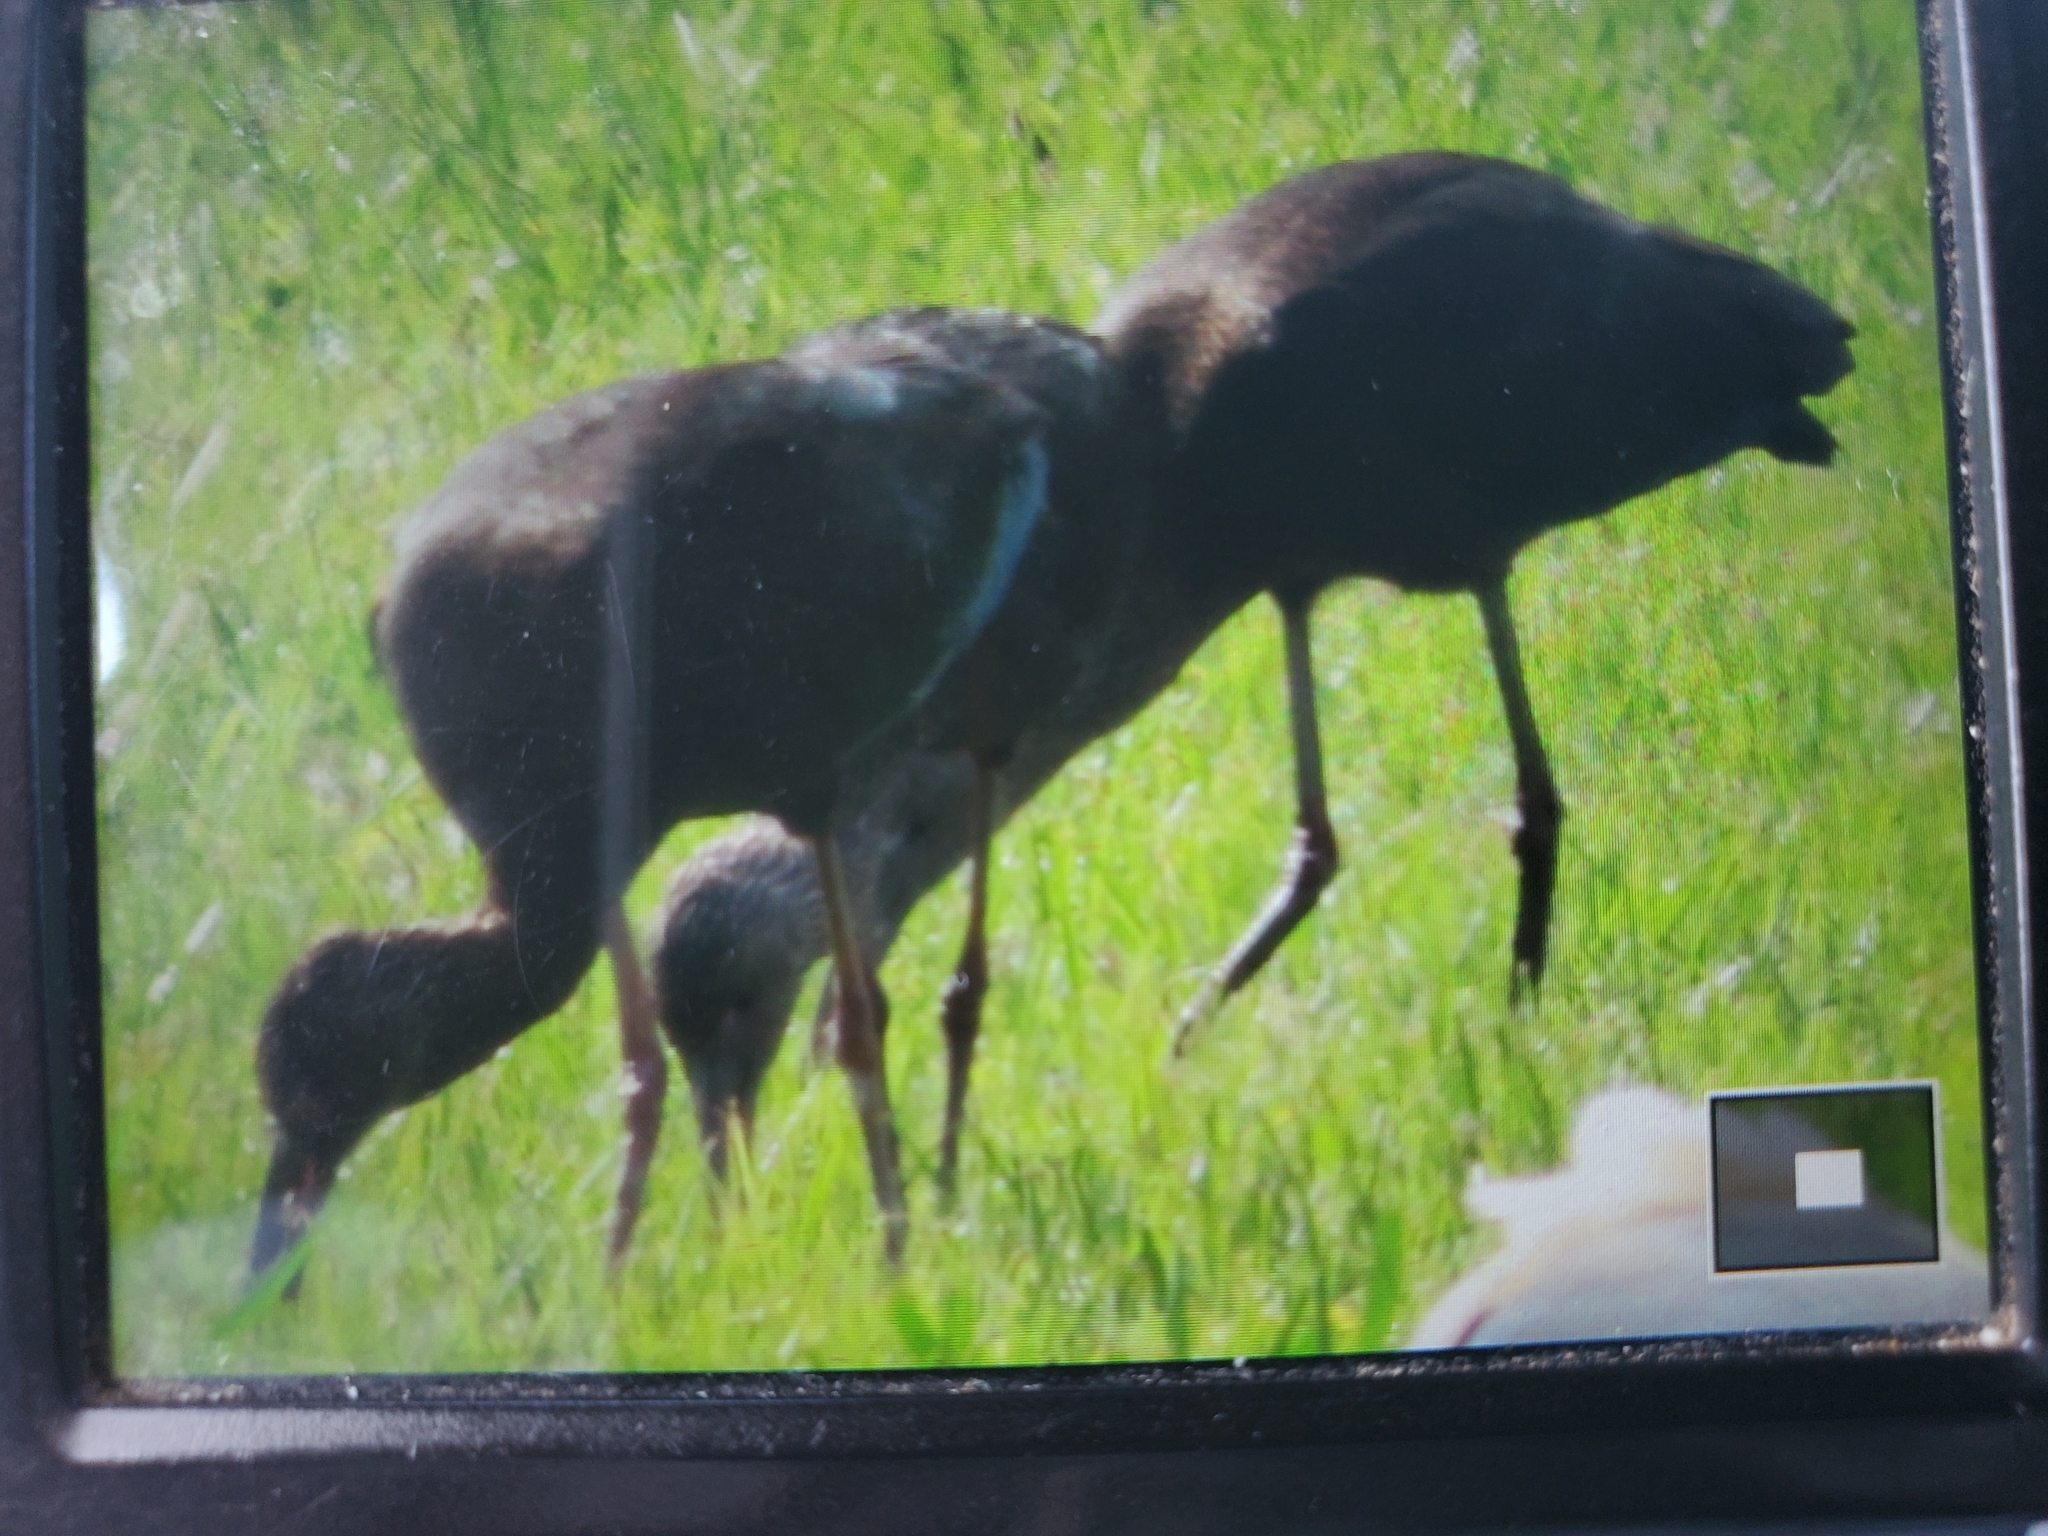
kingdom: Animalia
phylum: Chordata
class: Aves
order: Pelecaniformes
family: Threskiornithidae
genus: Plegadis
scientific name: Plegadis
